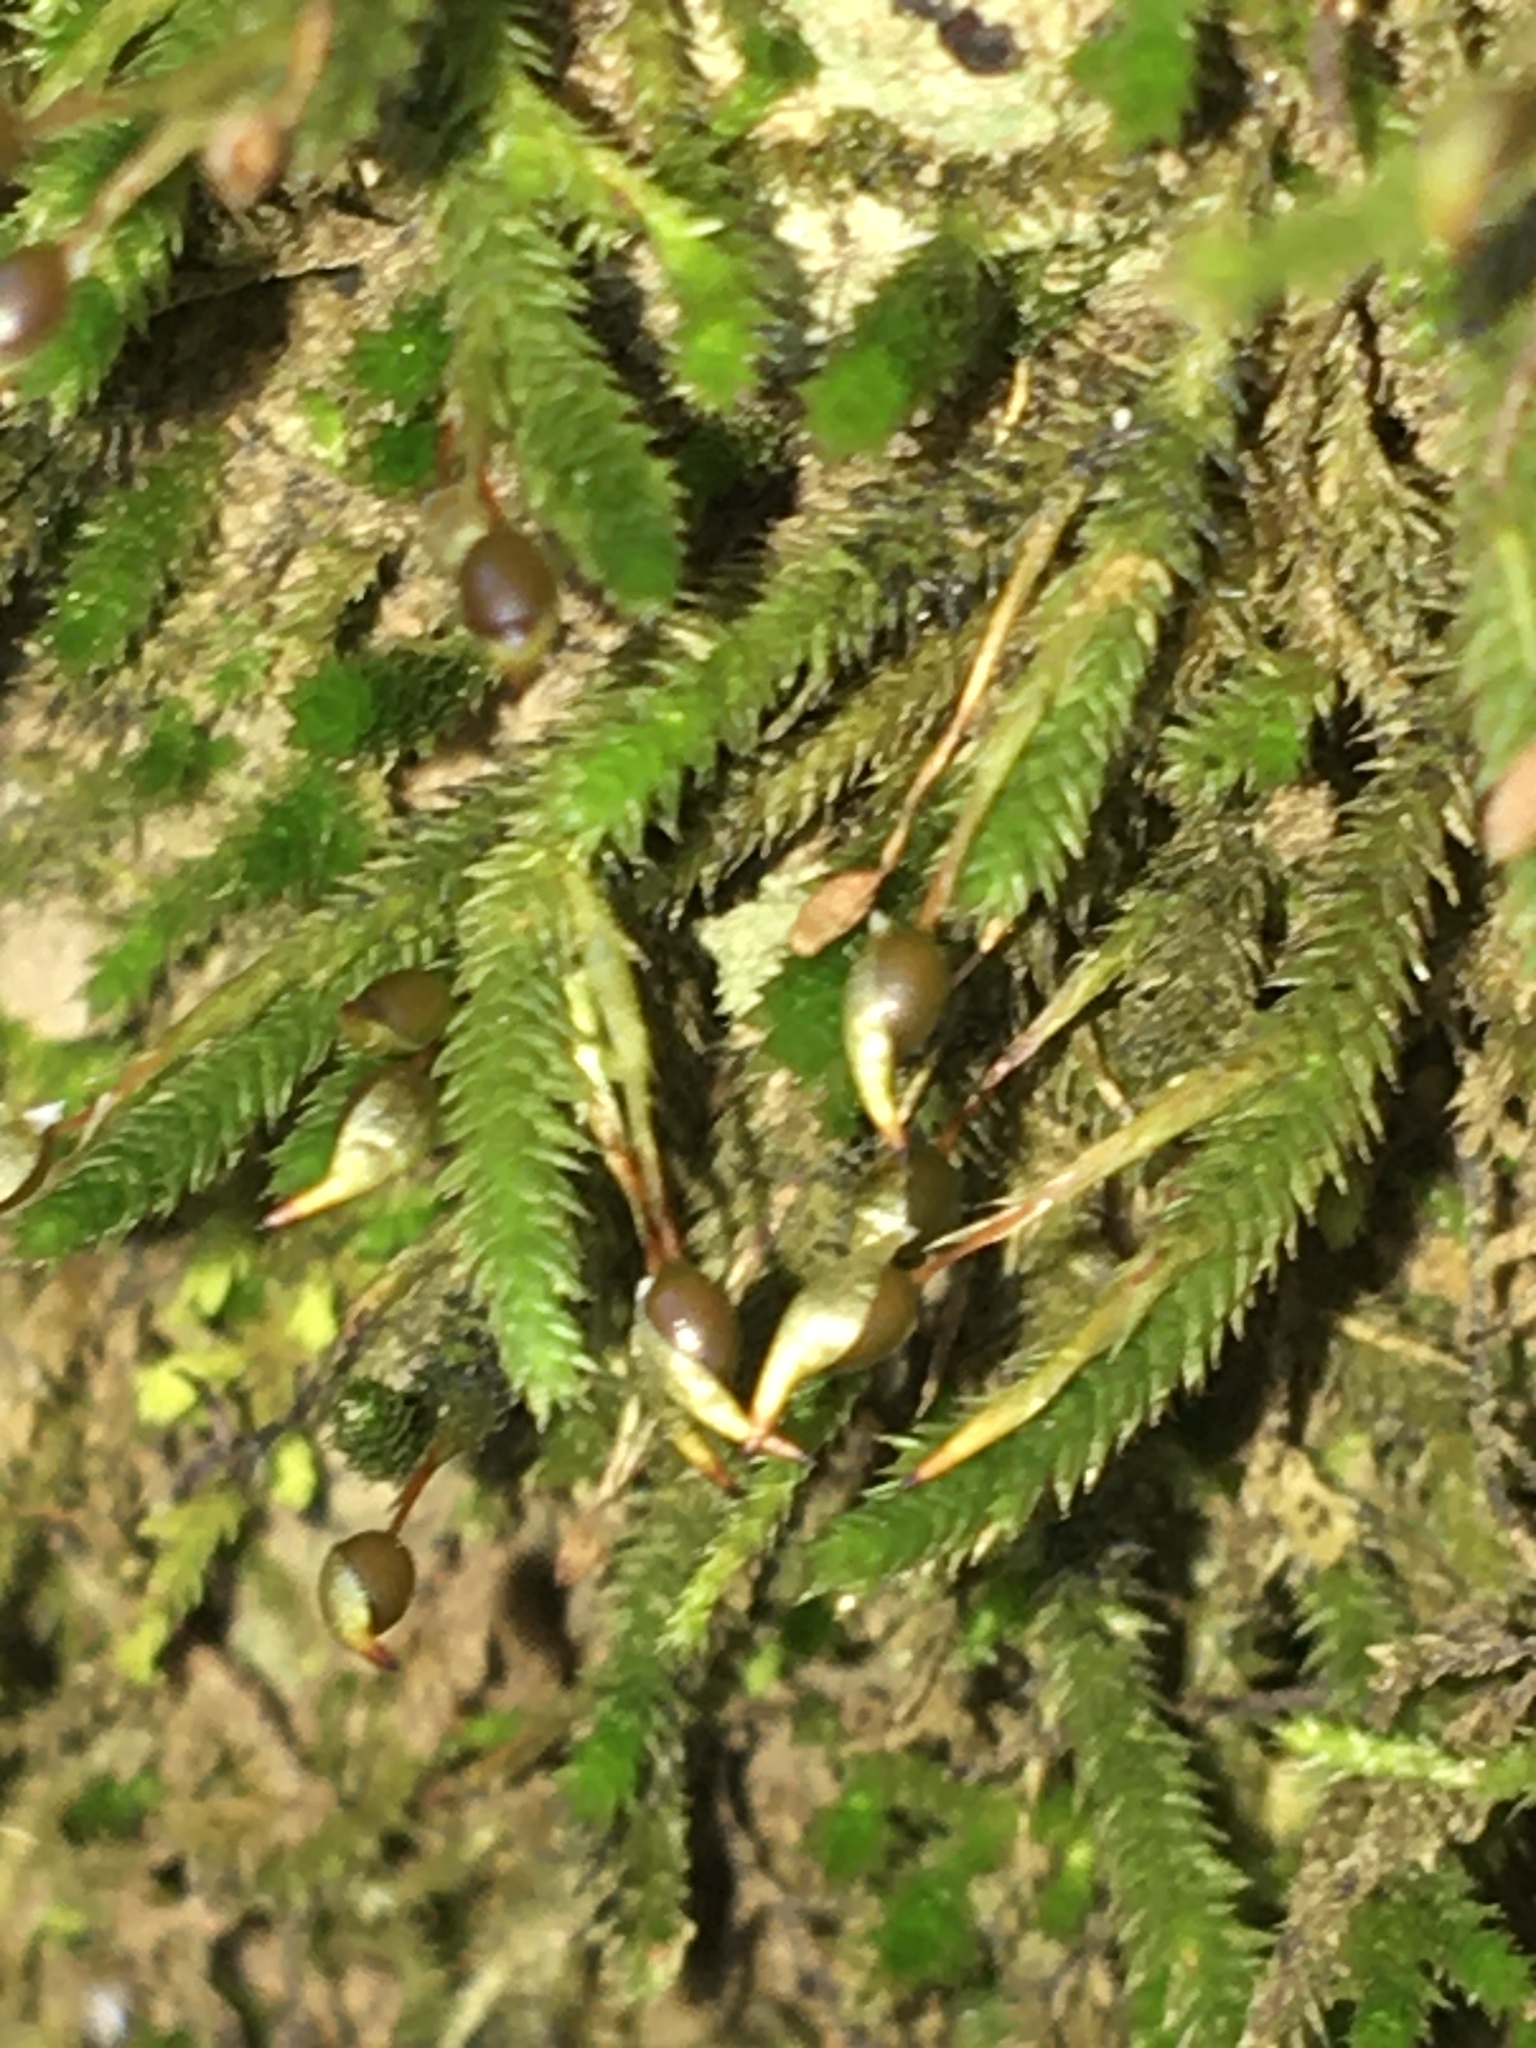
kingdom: Plantae
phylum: Bryophyta
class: Bryopsida
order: Hypnales
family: Leucodontaceae
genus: Leucodon
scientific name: Leucodon julaceus
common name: Smooth hook moss
